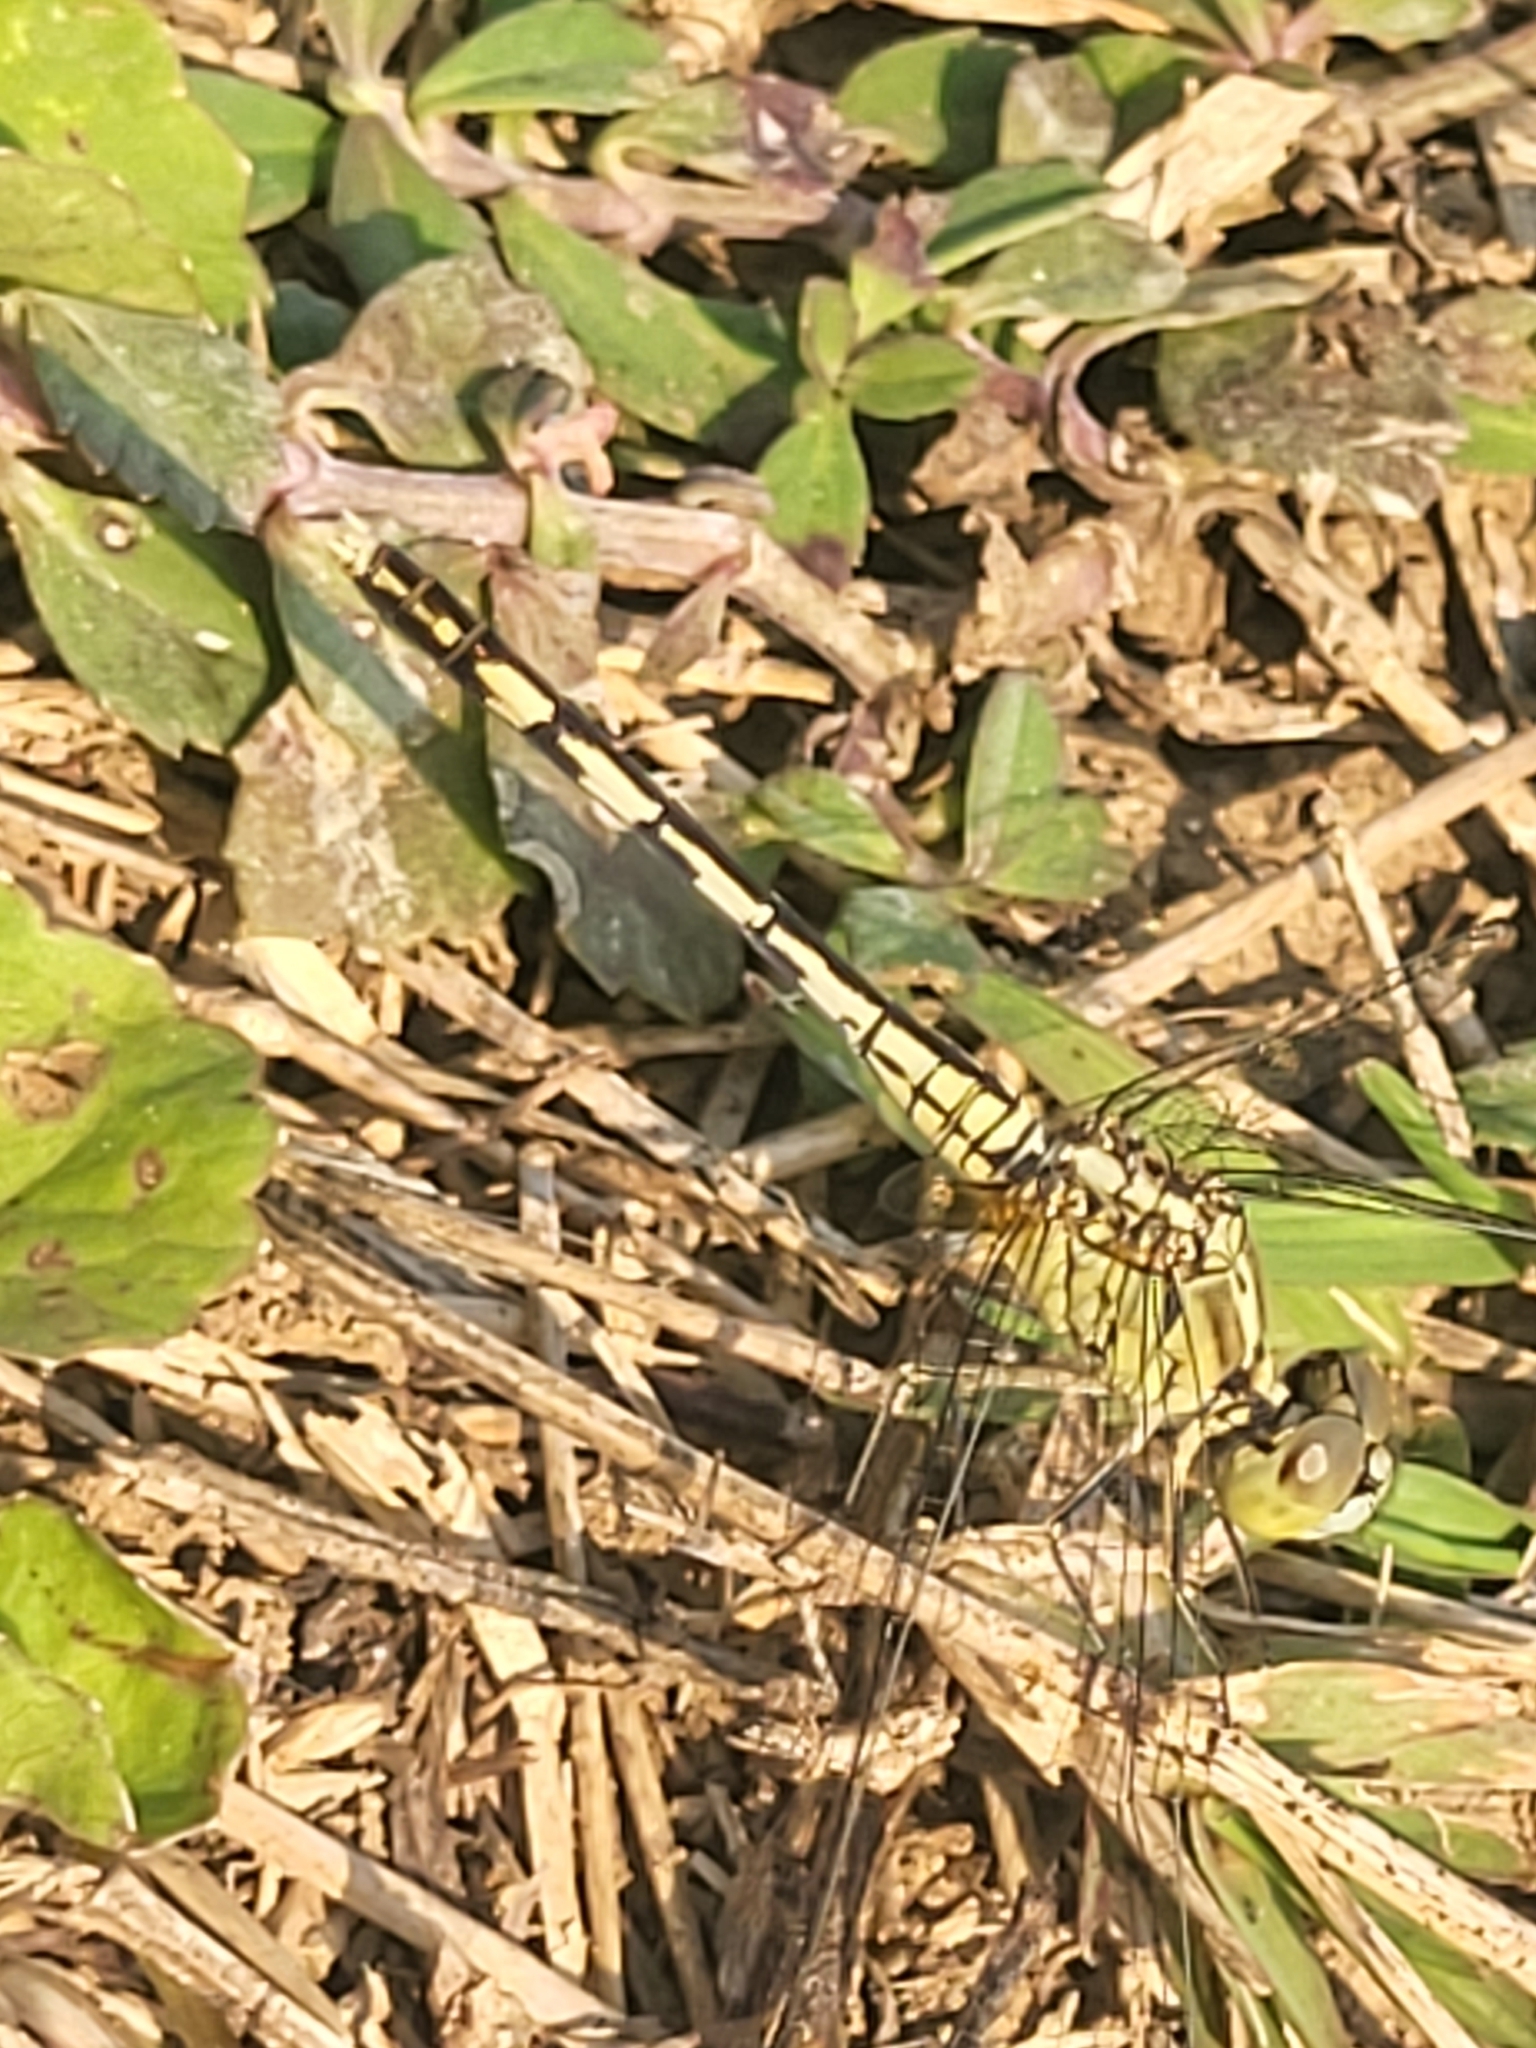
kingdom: Animalia
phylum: Arthropoda
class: Insecta
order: Odonata
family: Libellulidae
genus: Diplacodes
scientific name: Diplacodes trivialis
